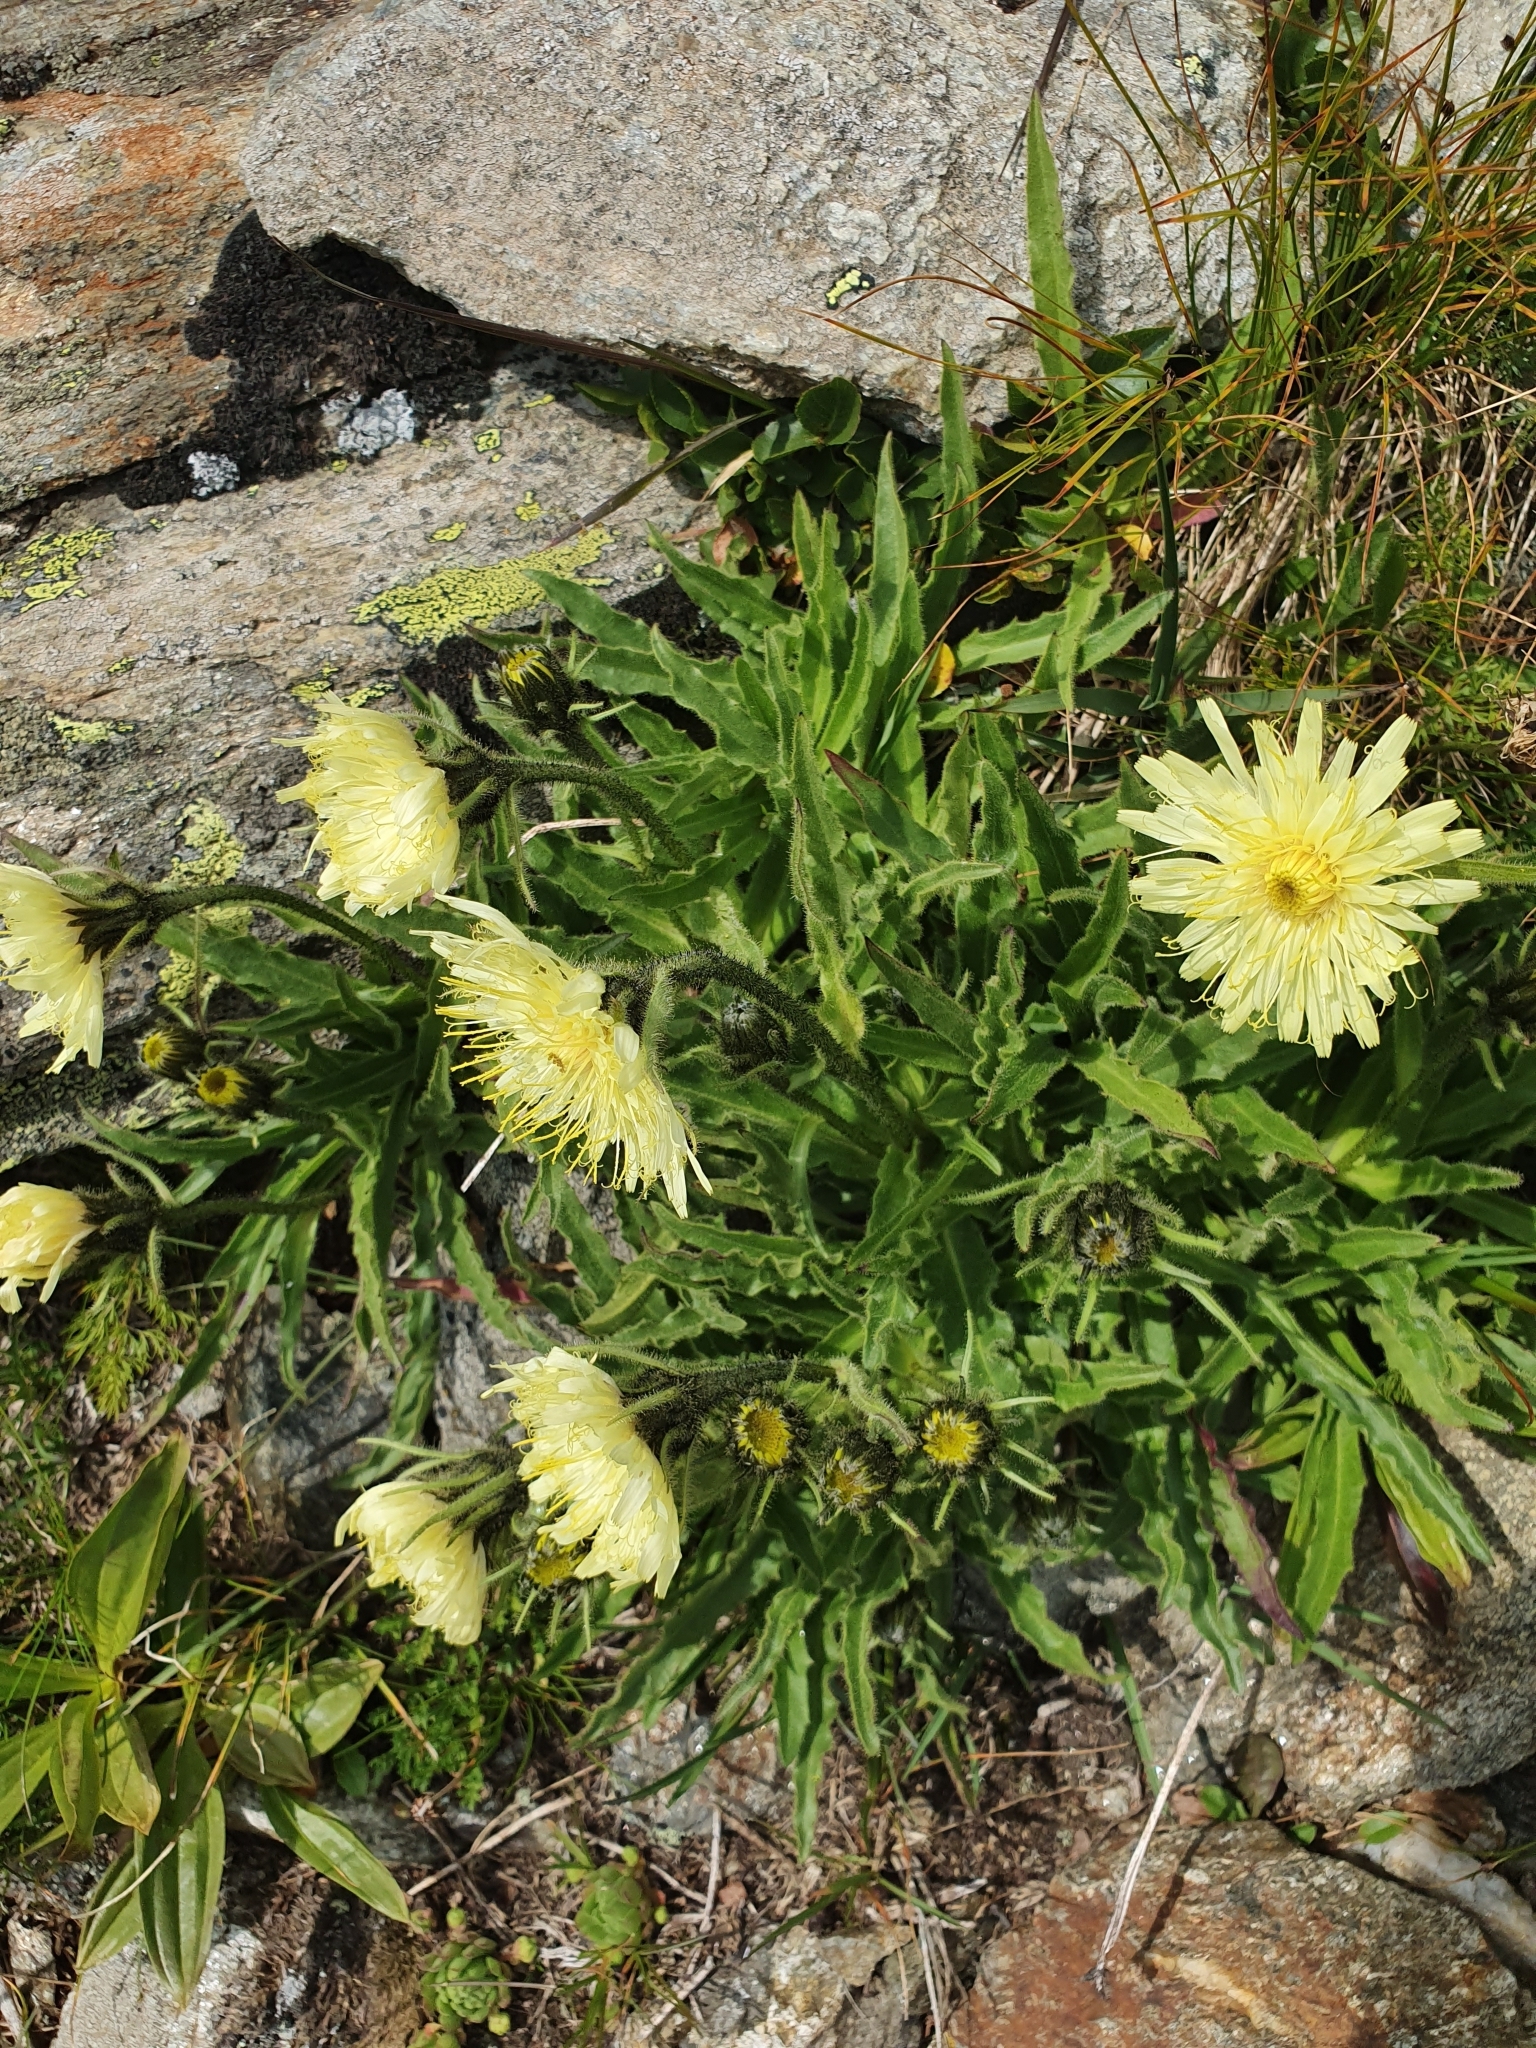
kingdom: Plantae
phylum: Tracheophyta
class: Magnoliopsida
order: Asterales
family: Asteraceae
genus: Schlagintweitia
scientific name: Schlagintweitia intybacea
